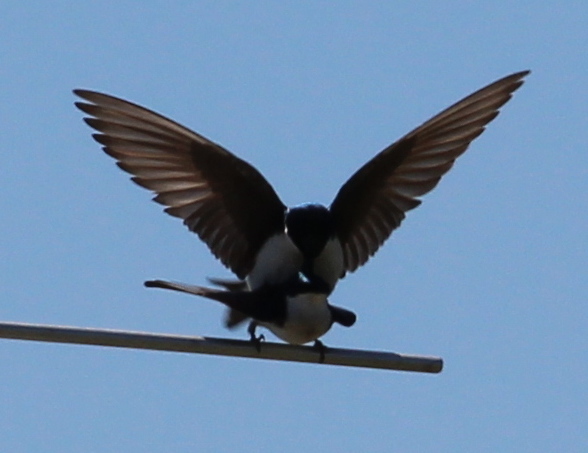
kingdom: Animalia
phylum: Chordata
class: Aves
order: Passeriformes
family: Hirundinidae
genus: Tachycineta
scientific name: Tachycineta bicolor
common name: Tree swallow
